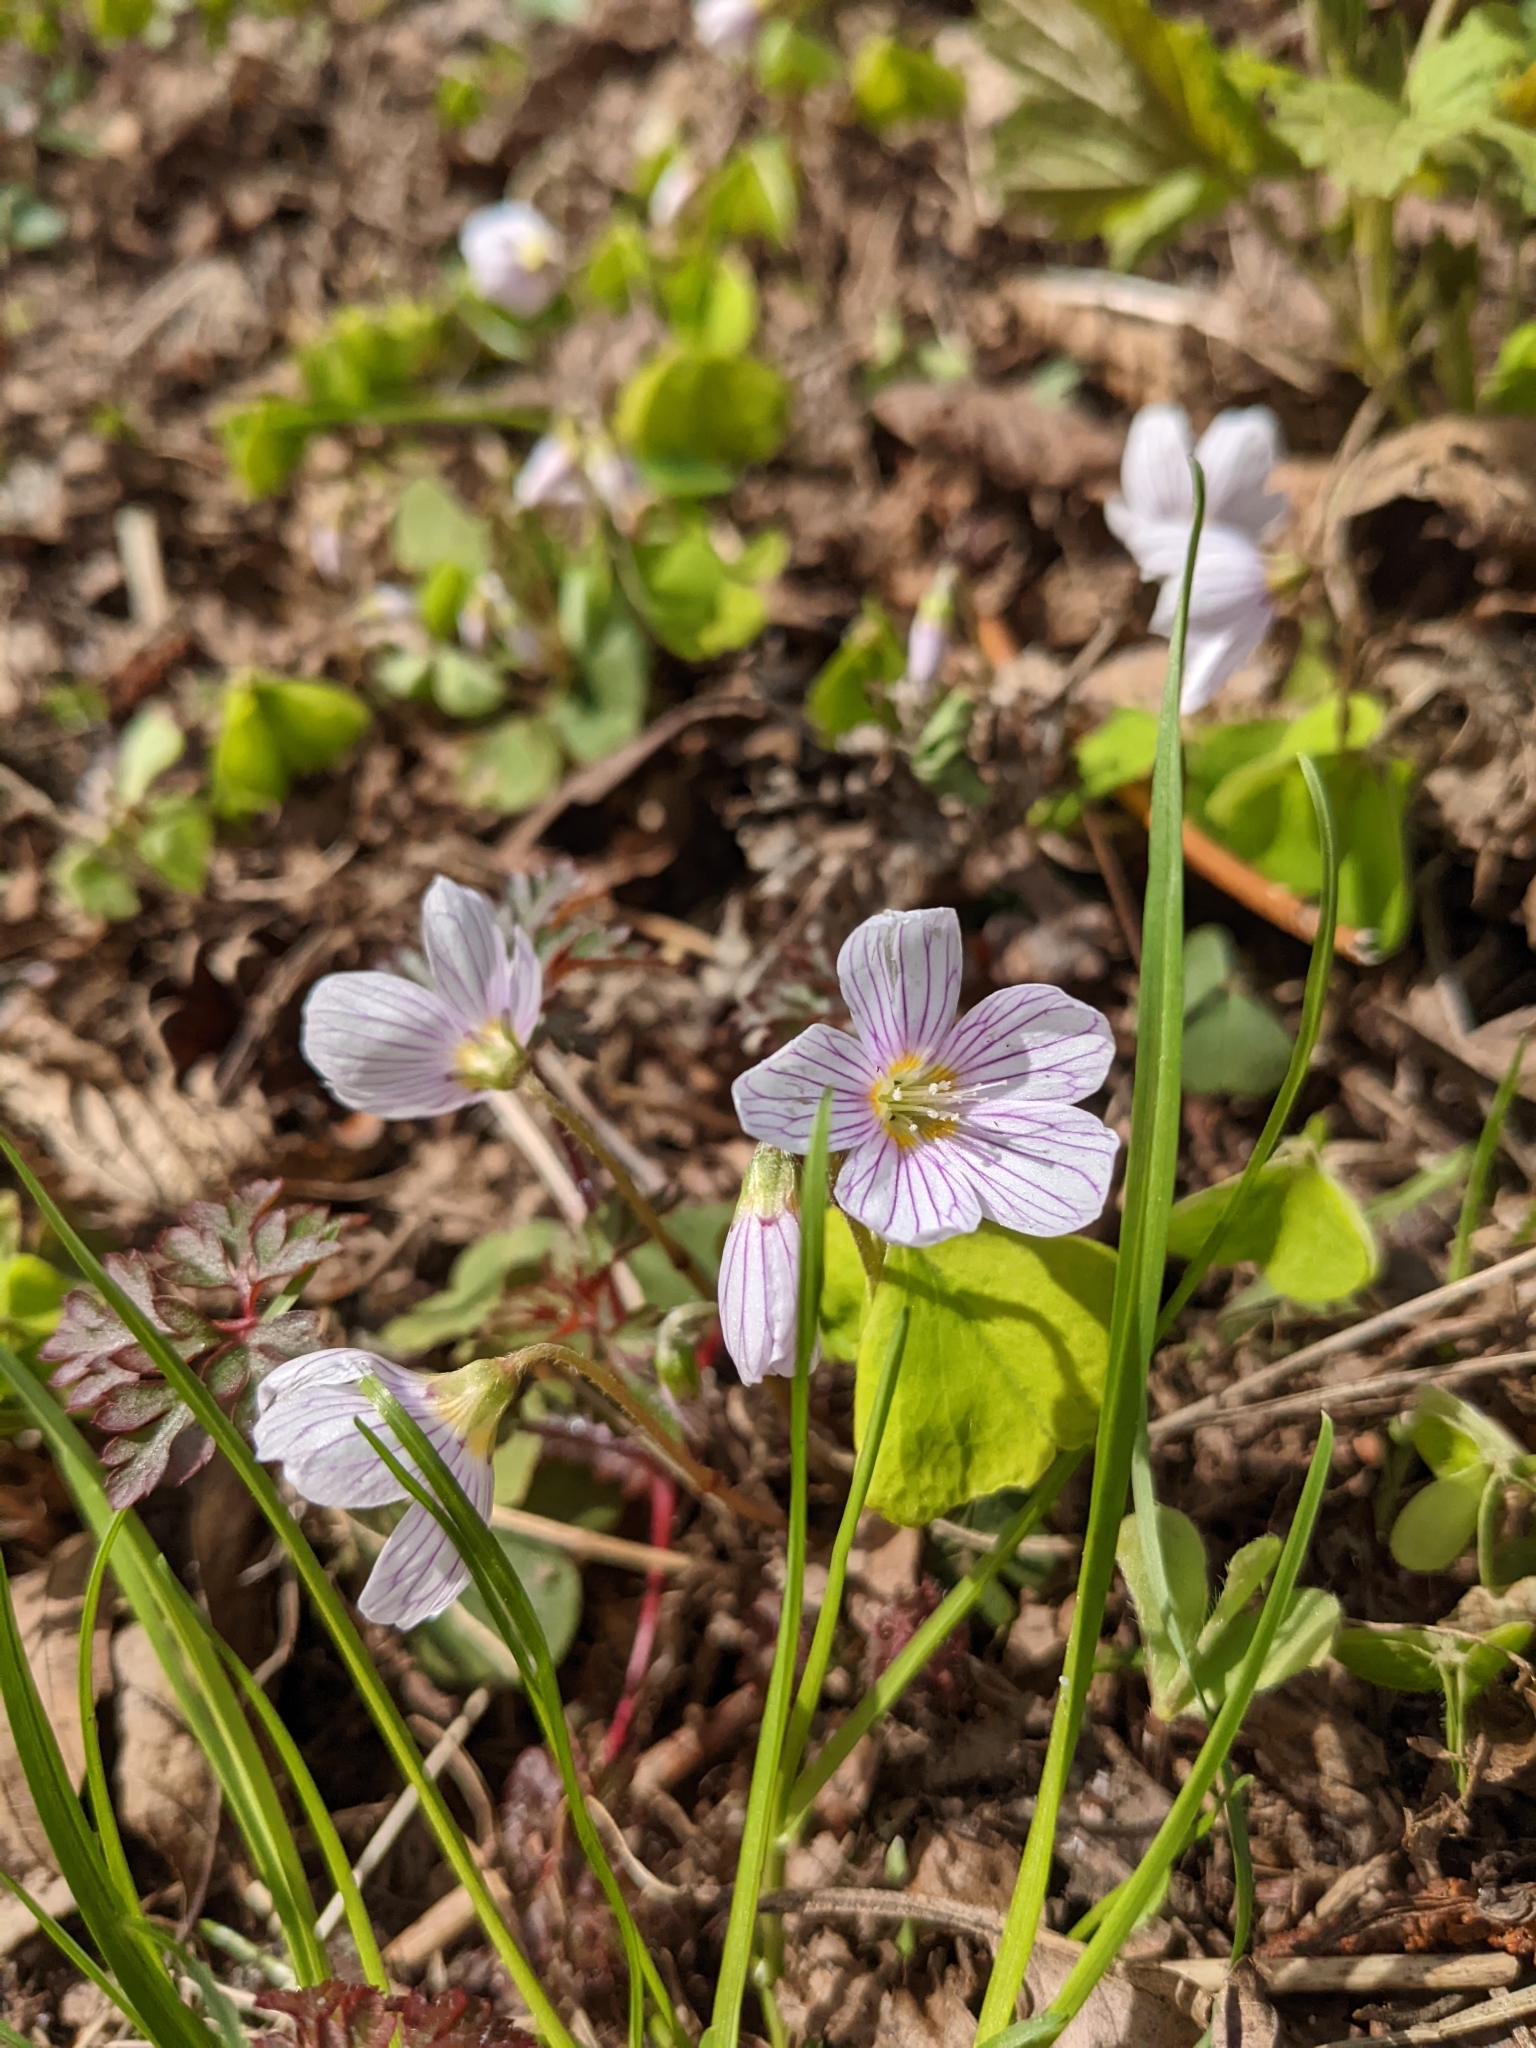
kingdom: Plantae
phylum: Tracheophyta
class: Magnoliopsida
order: Oxalidales
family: Oxalidaceae
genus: Oxalis
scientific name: Oxalis acetosella
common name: Wood-sorrel
